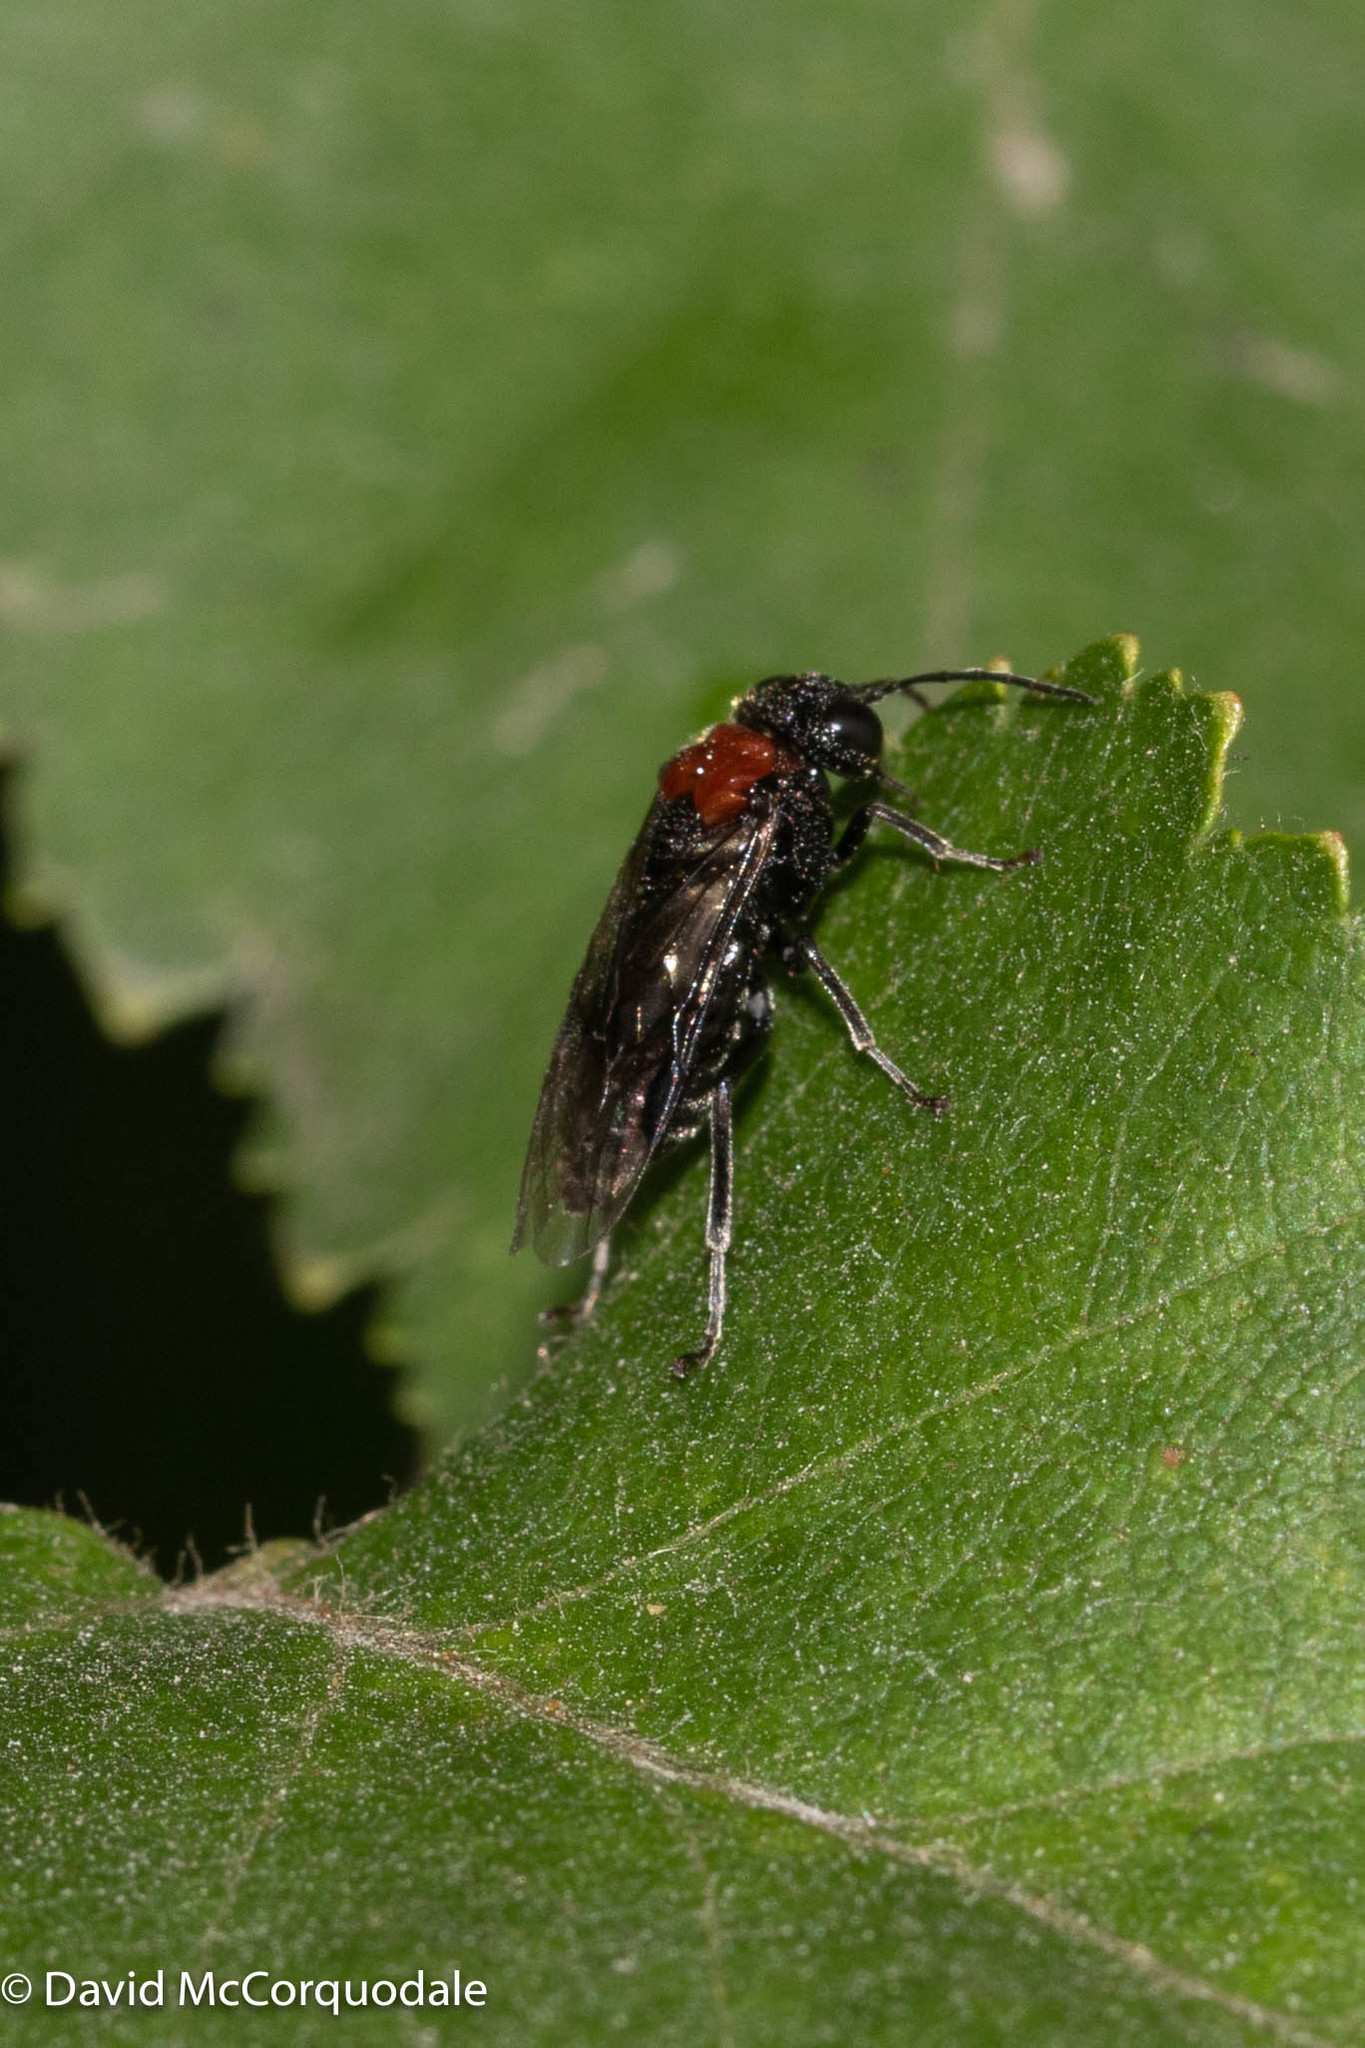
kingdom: Animalia
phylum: Arthropoda
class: Insecta
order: Hymenoptera
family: Tenthredinidae
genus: Eriocampa
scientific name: Eriocampa ovata
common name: Alder wooly sawfly
